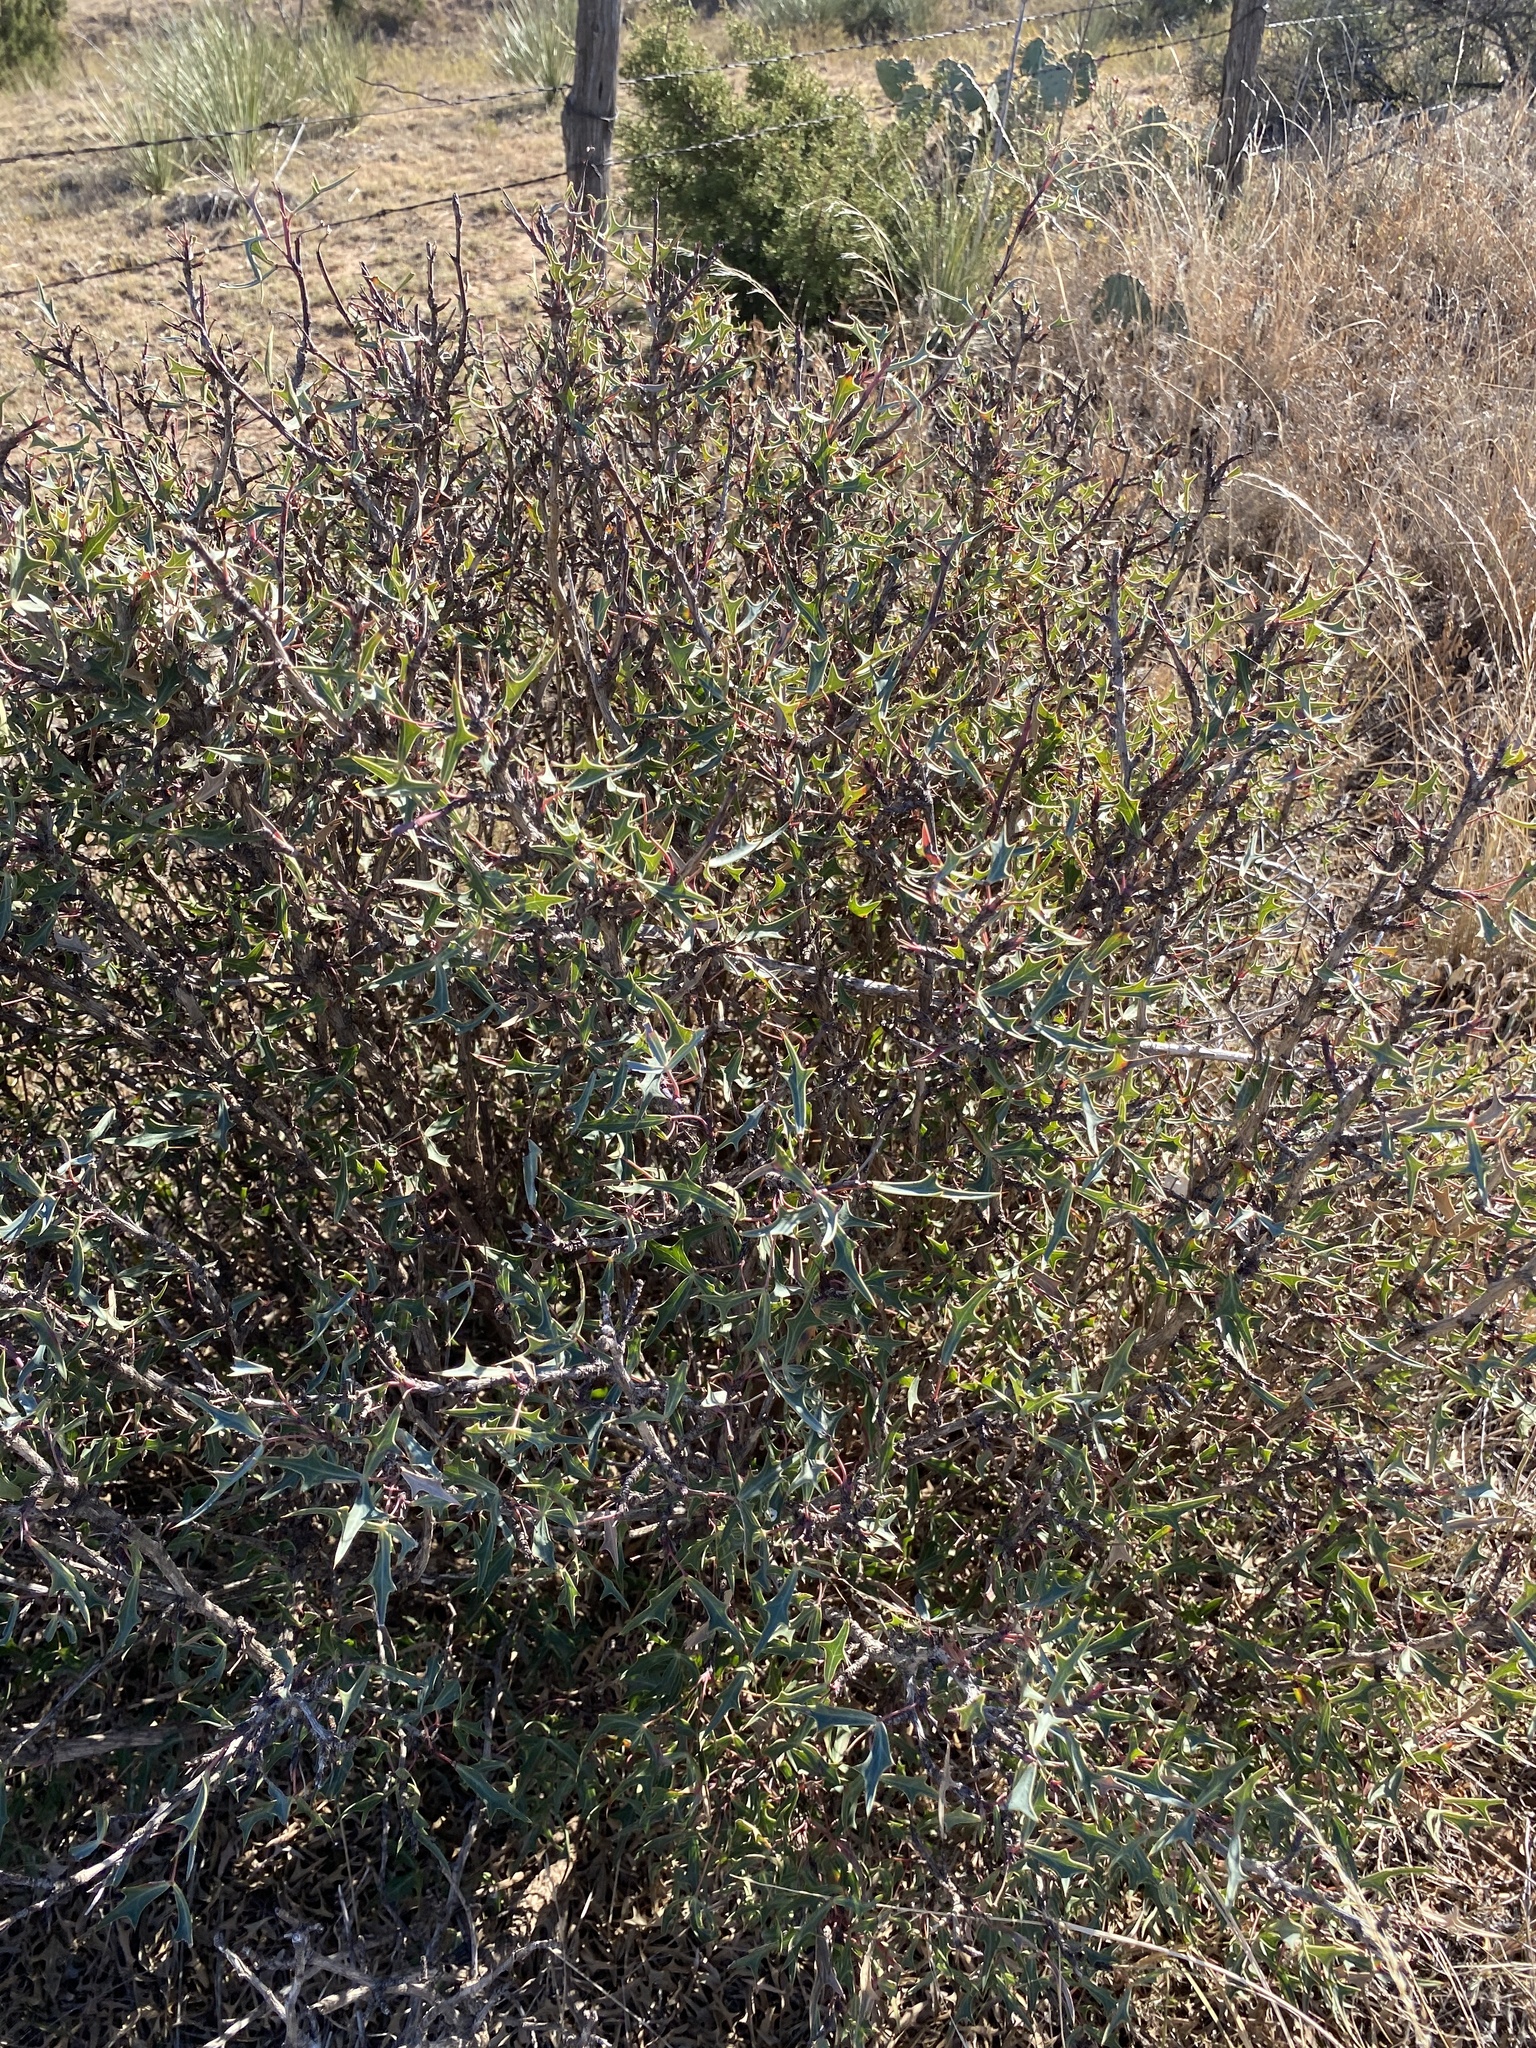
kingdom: Plantae
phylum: Tracheophyta
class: Magnoliopsida
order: Ranunculales
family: Berberidaceae
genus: Alloberberis
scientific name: Alloberberis trifoliolata
